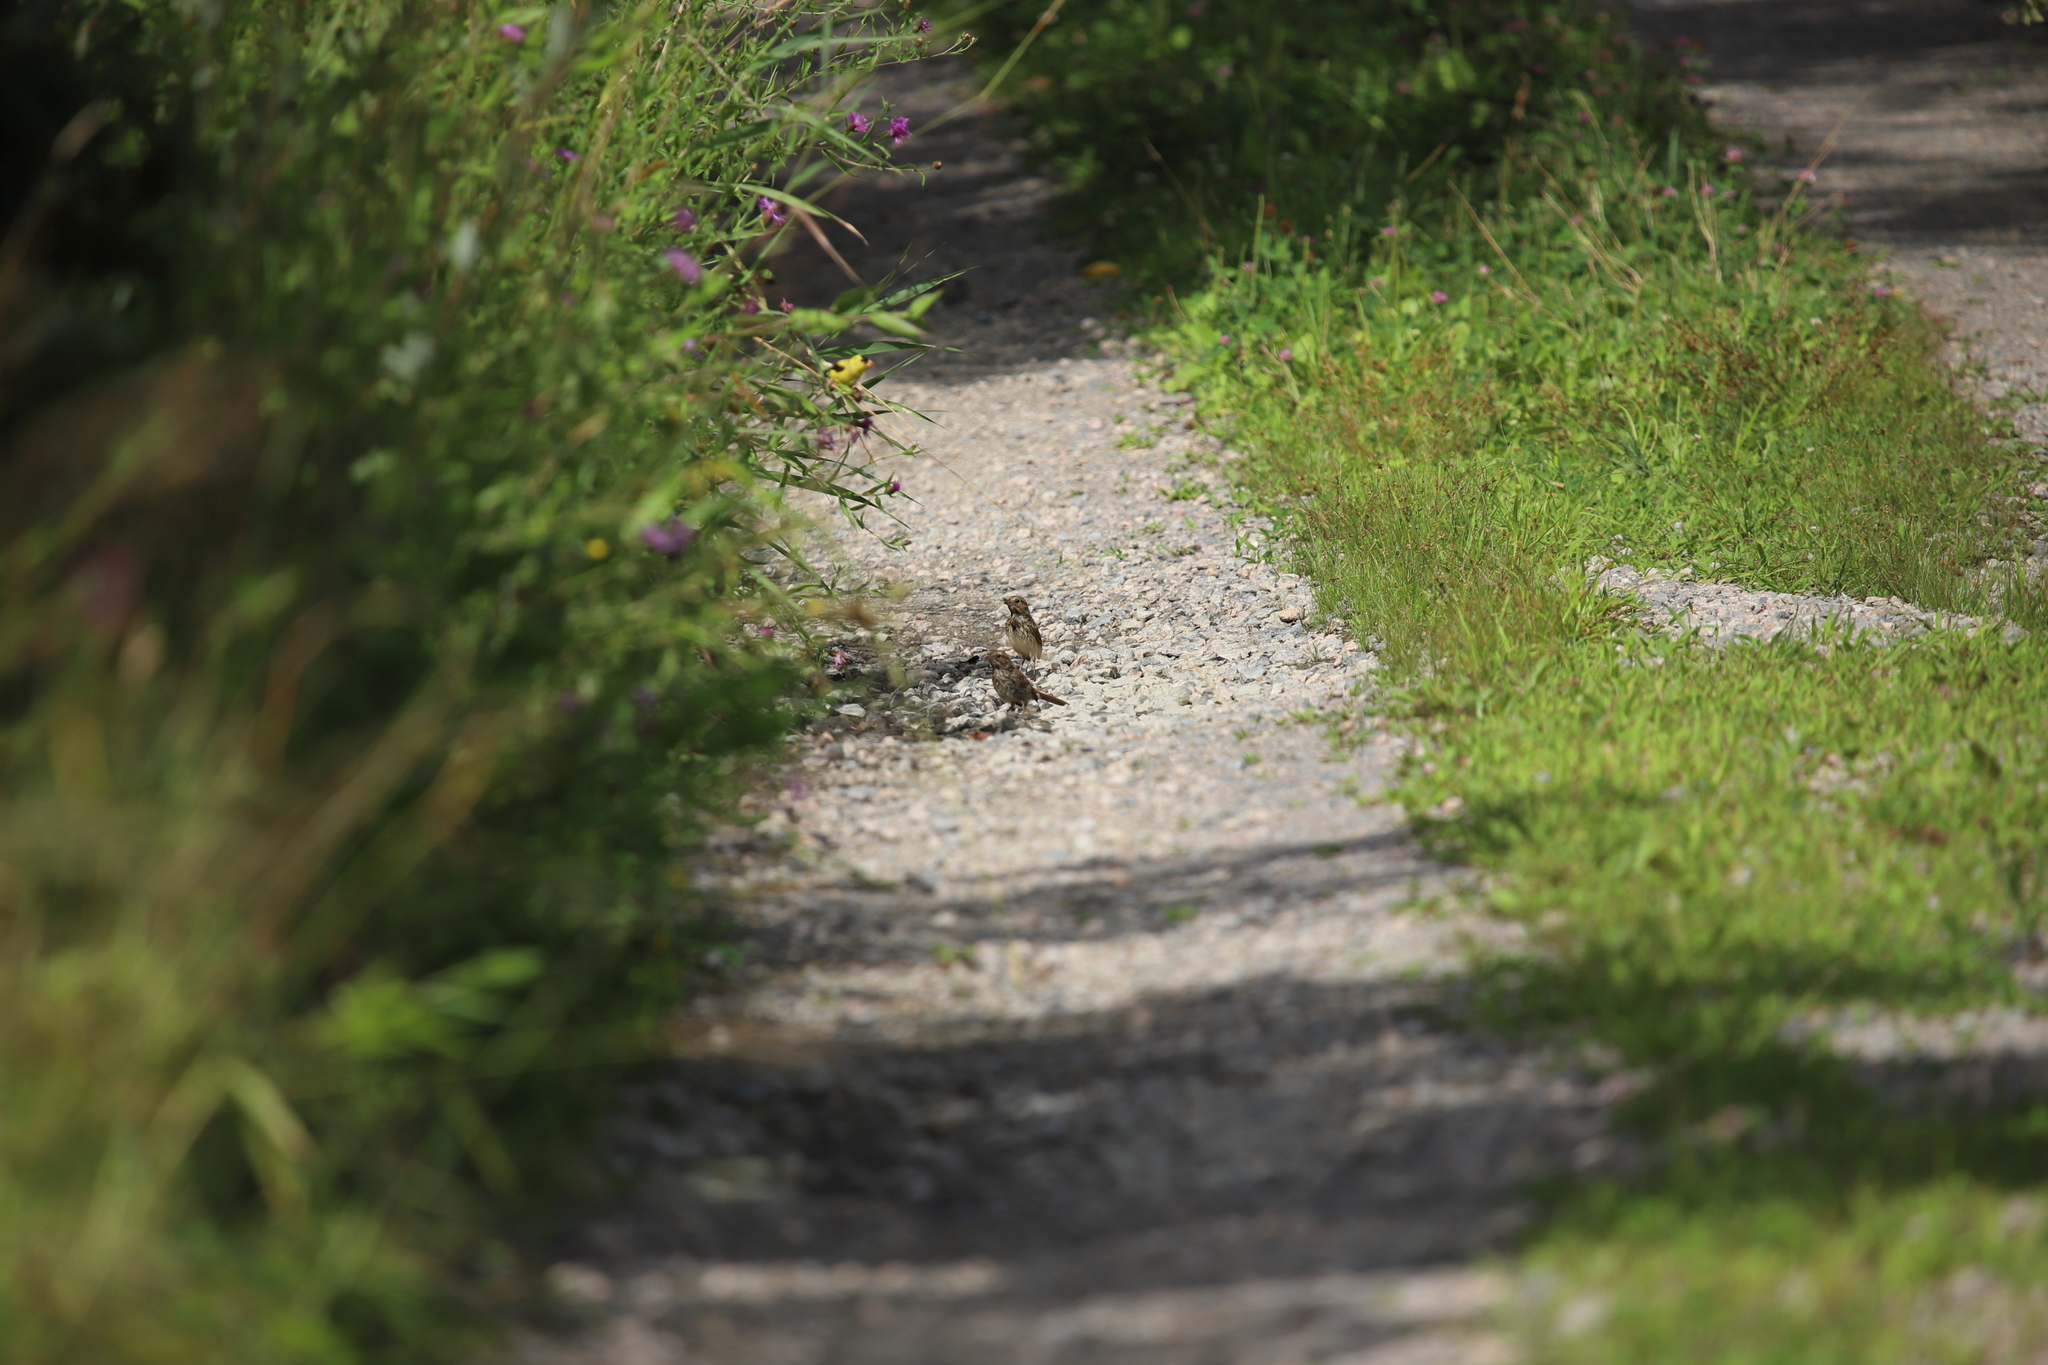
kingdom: Animalia
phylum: Chordata
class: Aves
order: Passeriformes
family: Passerellidae
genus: Melospiza
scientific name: Melospiza melodia
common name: Song sparrow
